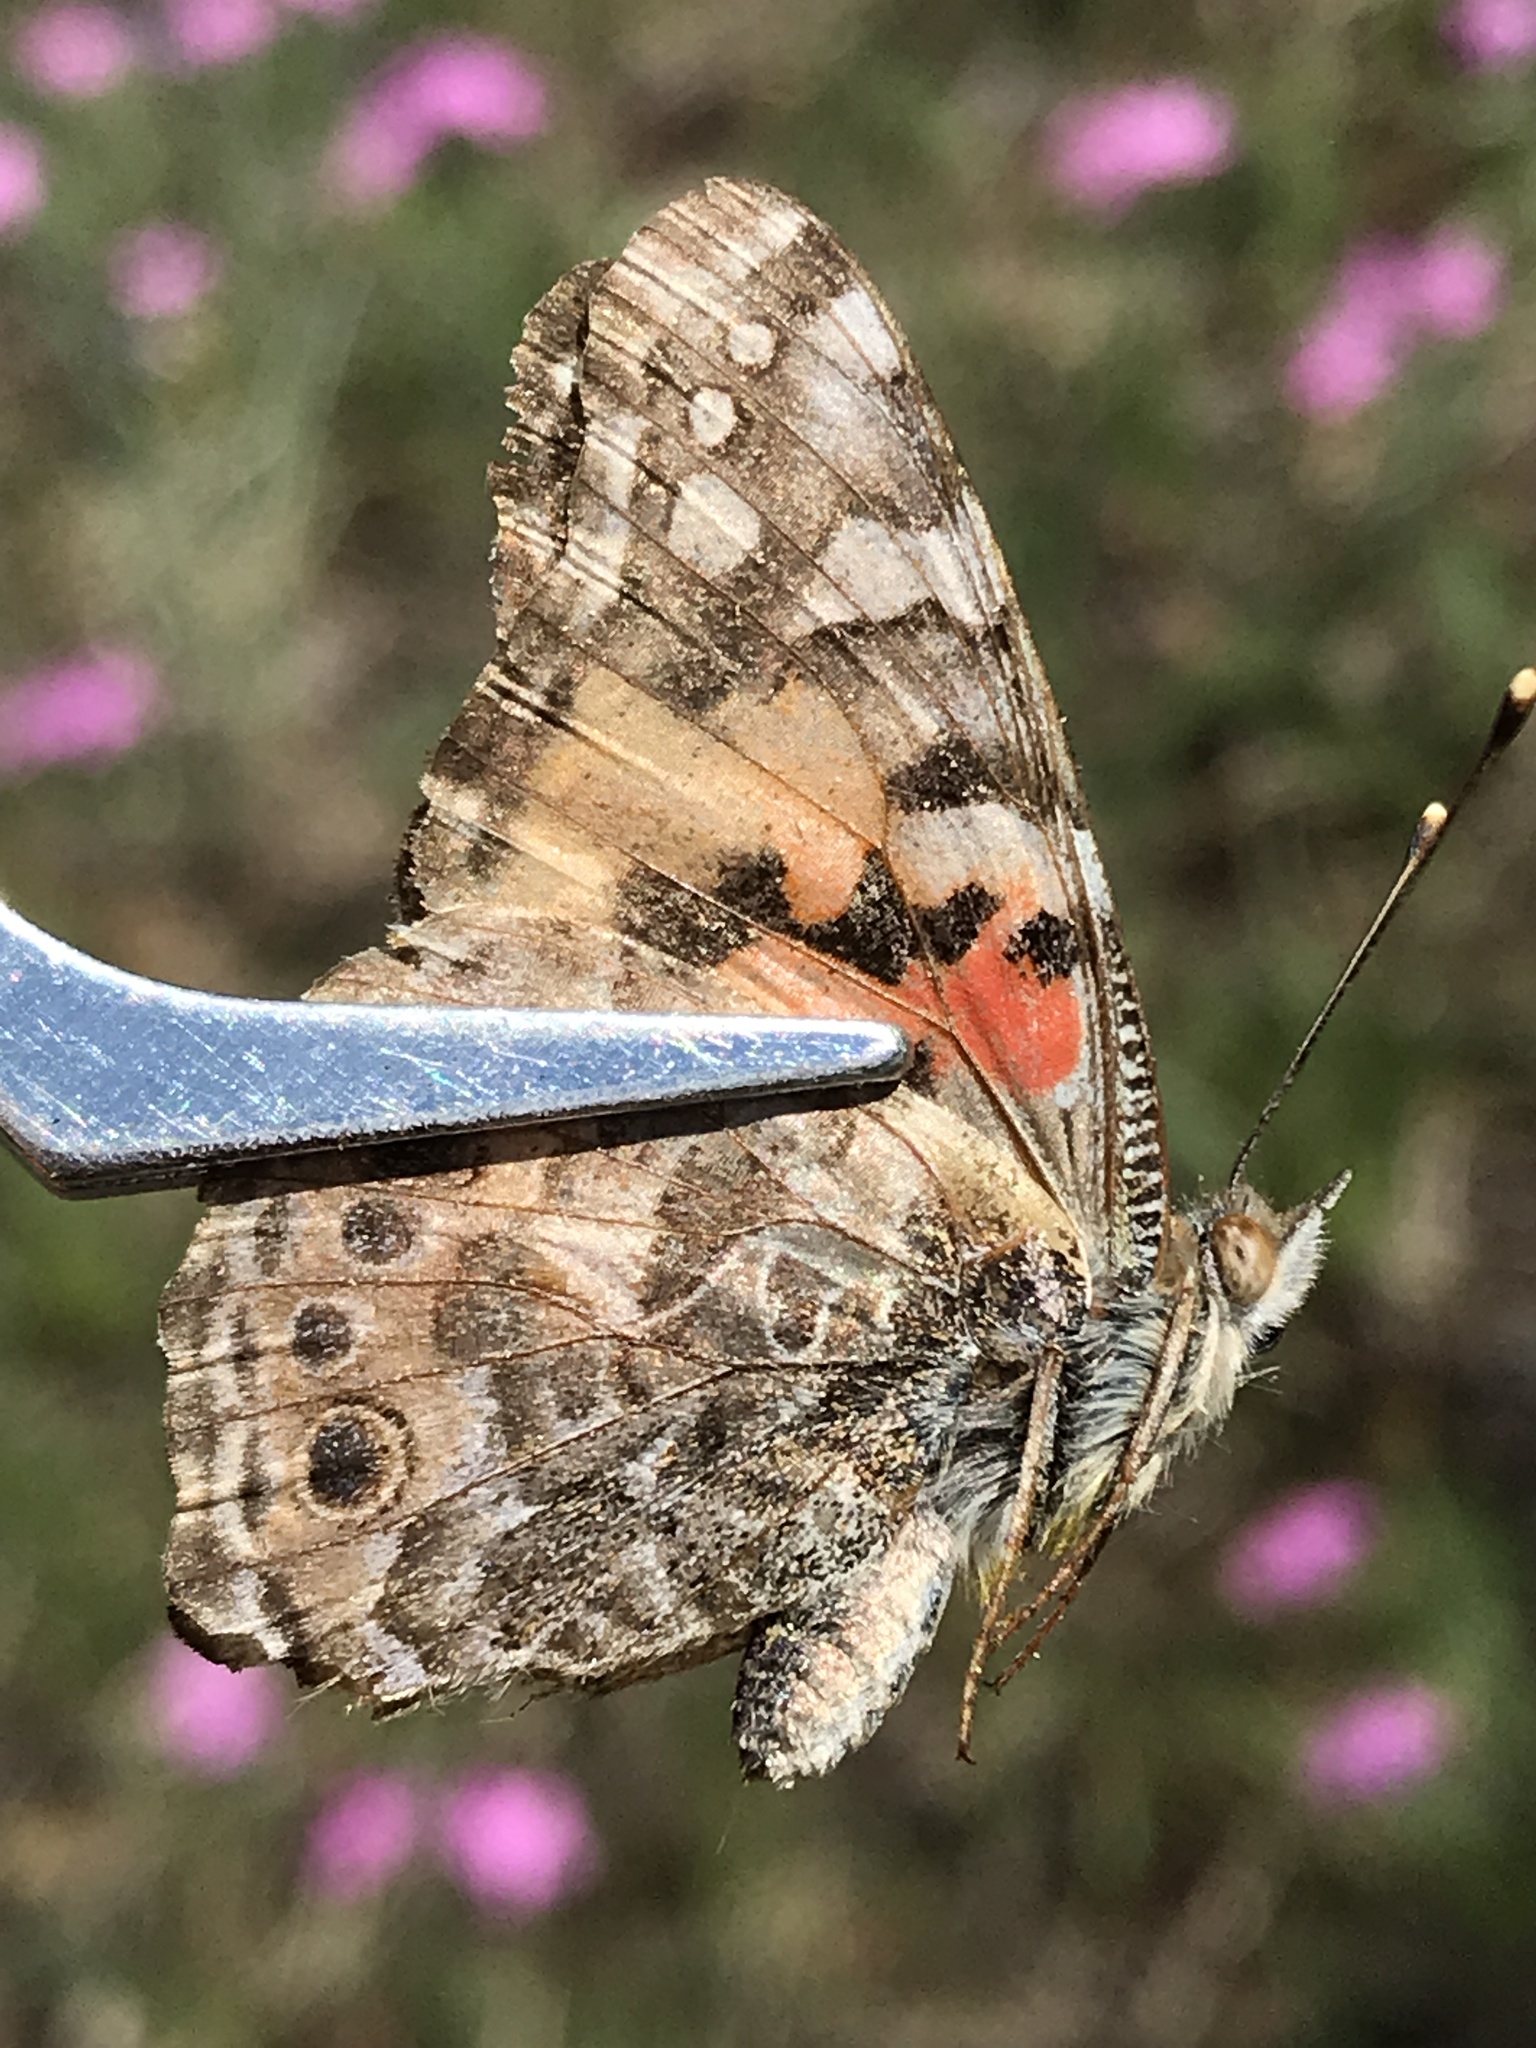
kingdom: Animalia
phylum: Arthropoda
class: Insecta
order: Lepidoptera
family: Nymphalidae
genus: Vanessa
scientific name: Vanessa cardui
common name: Painted lady
